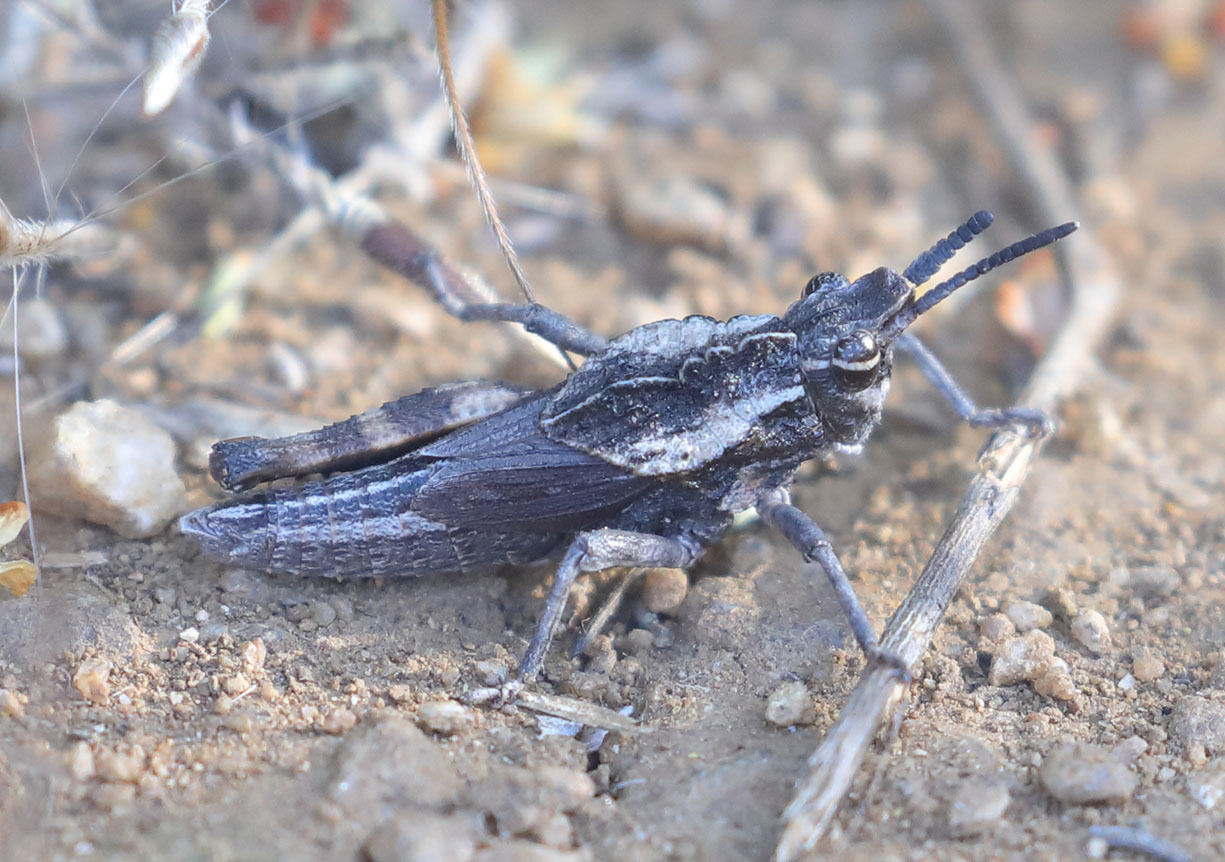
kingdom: Animalia
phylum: Arthropoda
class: Insecta
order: Orthoptera
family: Romaleidae
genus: Dracotettix
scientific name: Dracotettix monstrosus
